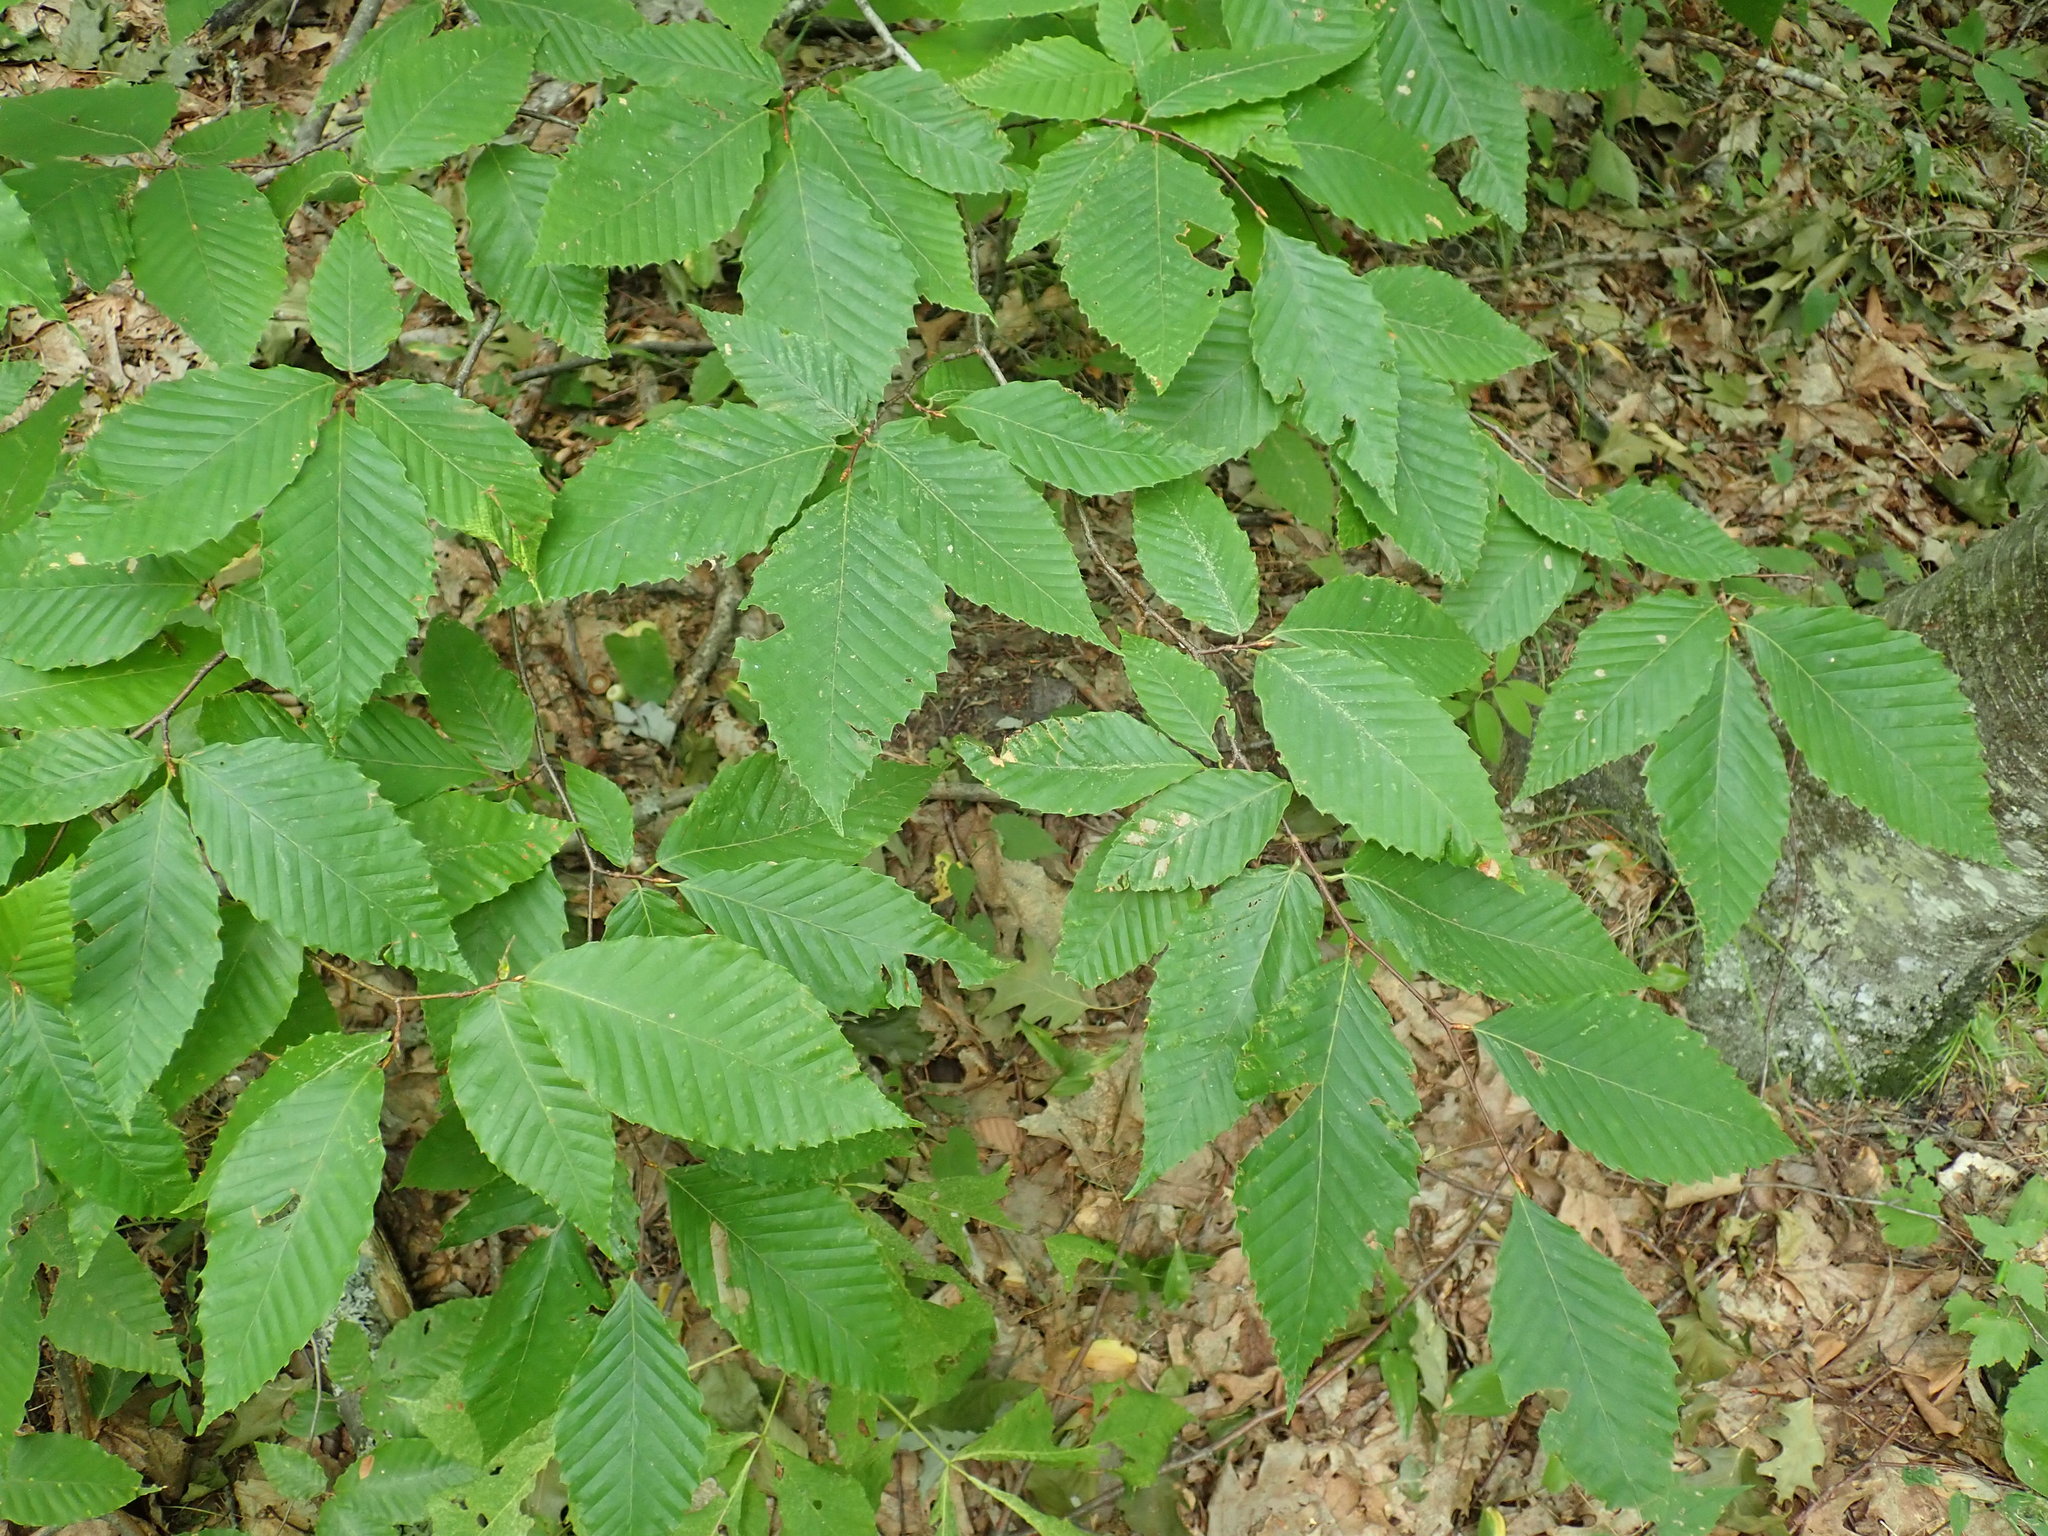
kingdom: Plantae
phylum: Tracheophyta
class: Magnoliopsida
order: Fagales
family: Fagaceae
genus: Fagus
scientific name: Fagus grandifolia
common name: American beech
